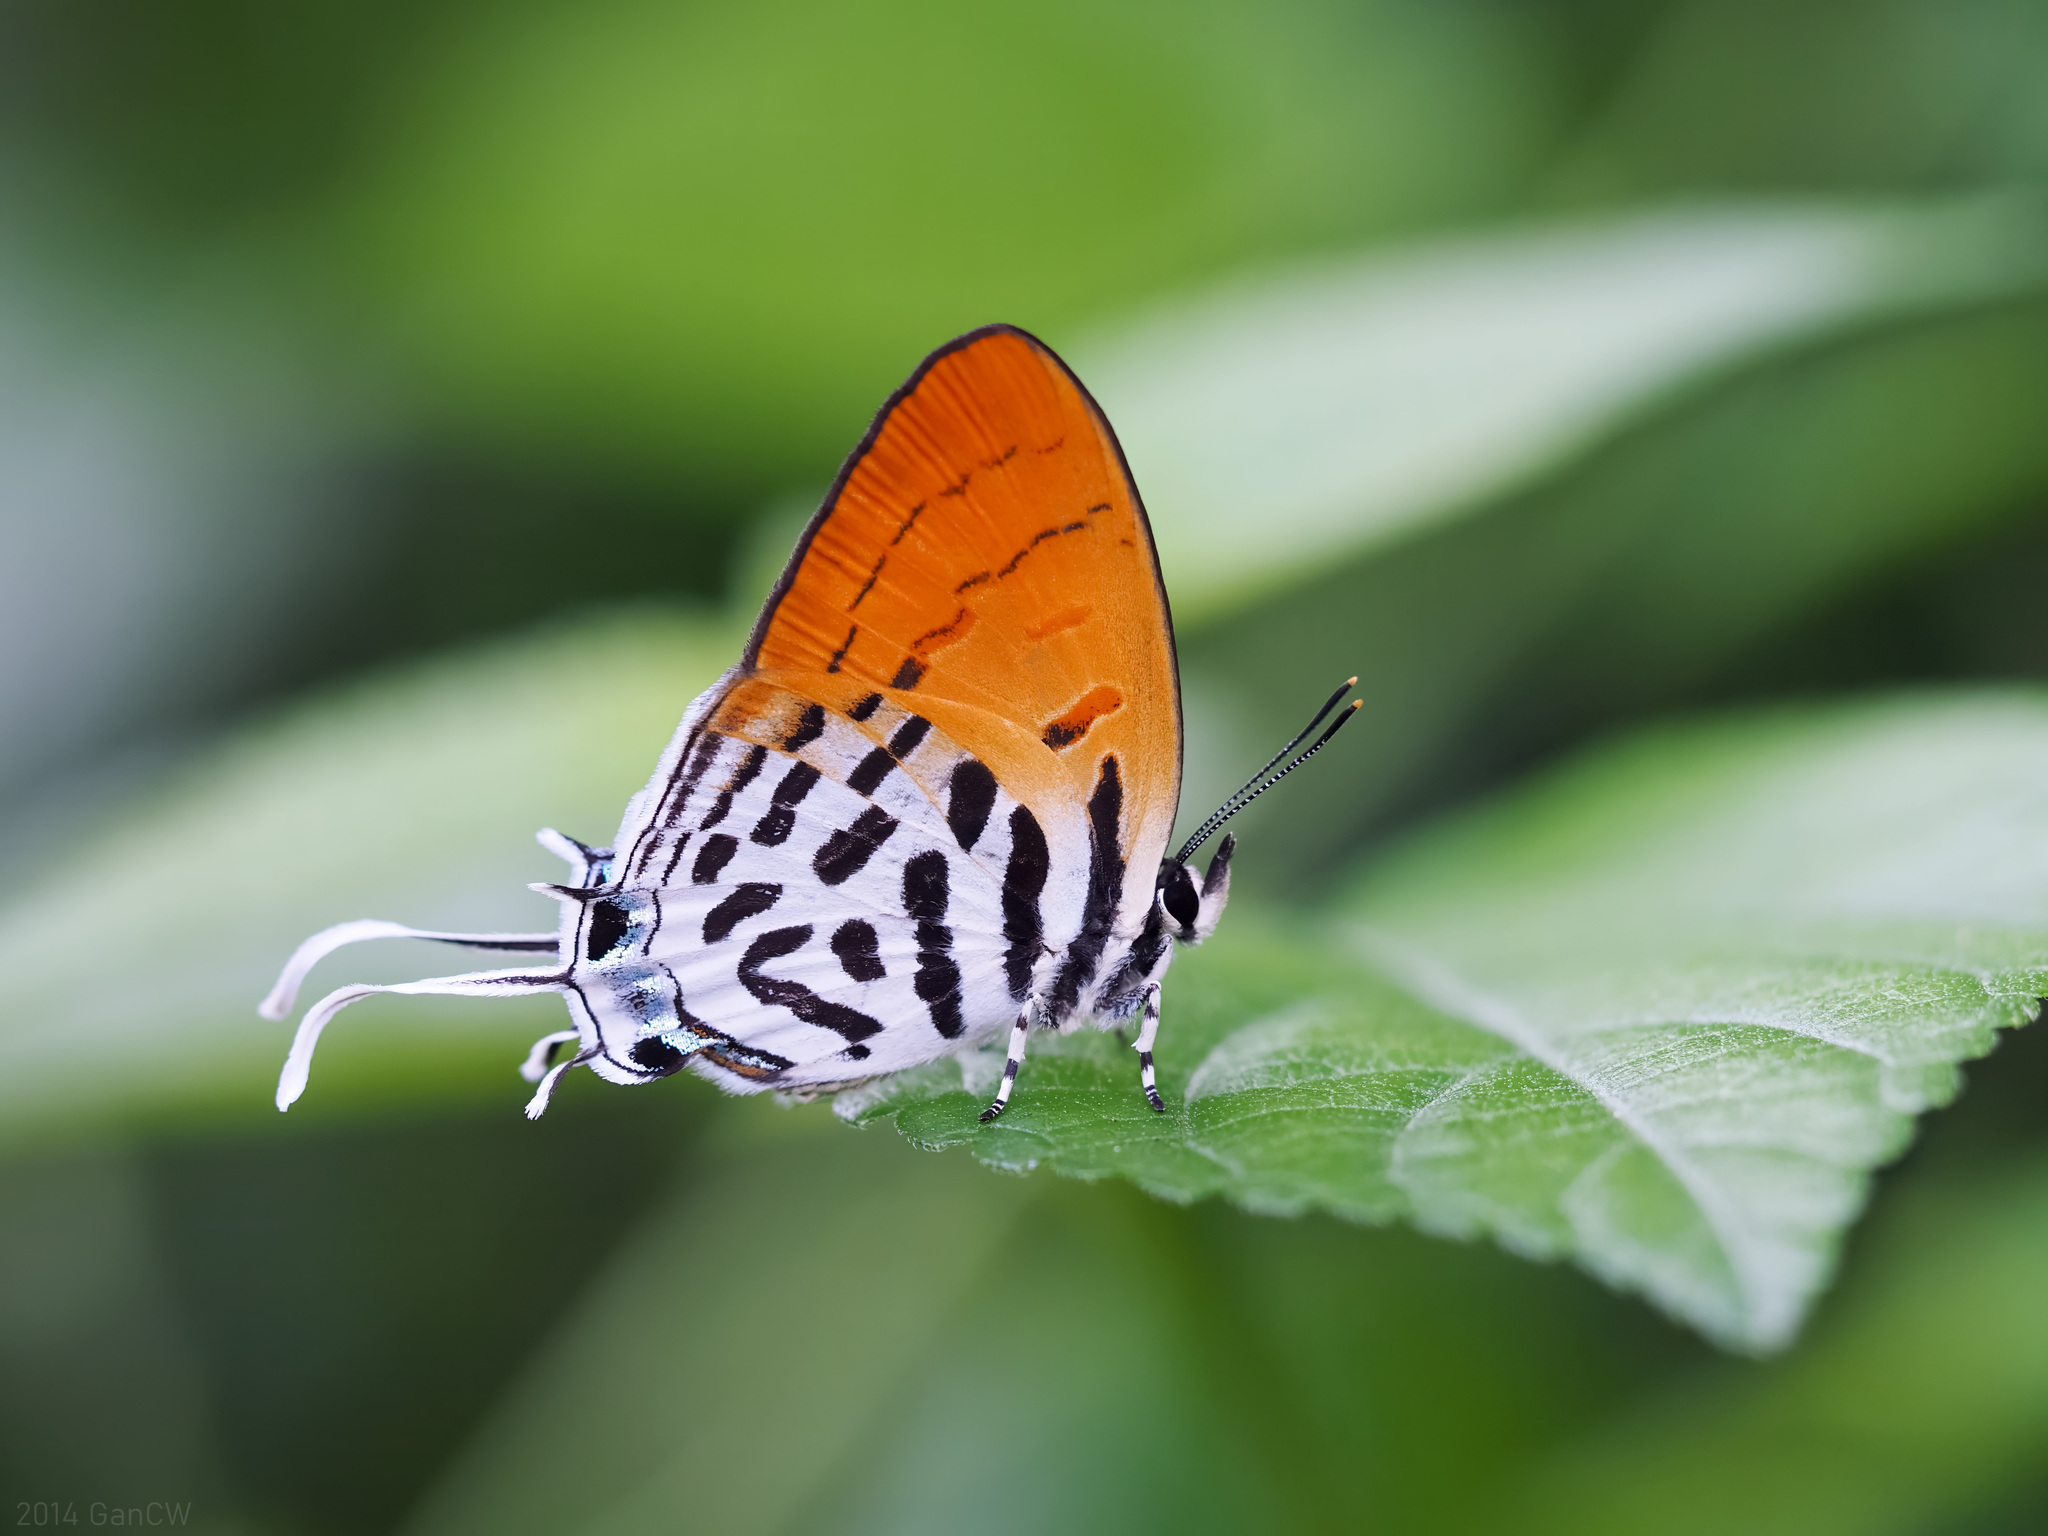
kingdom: Animalia
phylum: Arthropoda
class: Insecta
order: Lepidoptera
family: Lycaenidae
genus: Drupadia
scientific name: Drupadia ravindra
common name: Common posy
